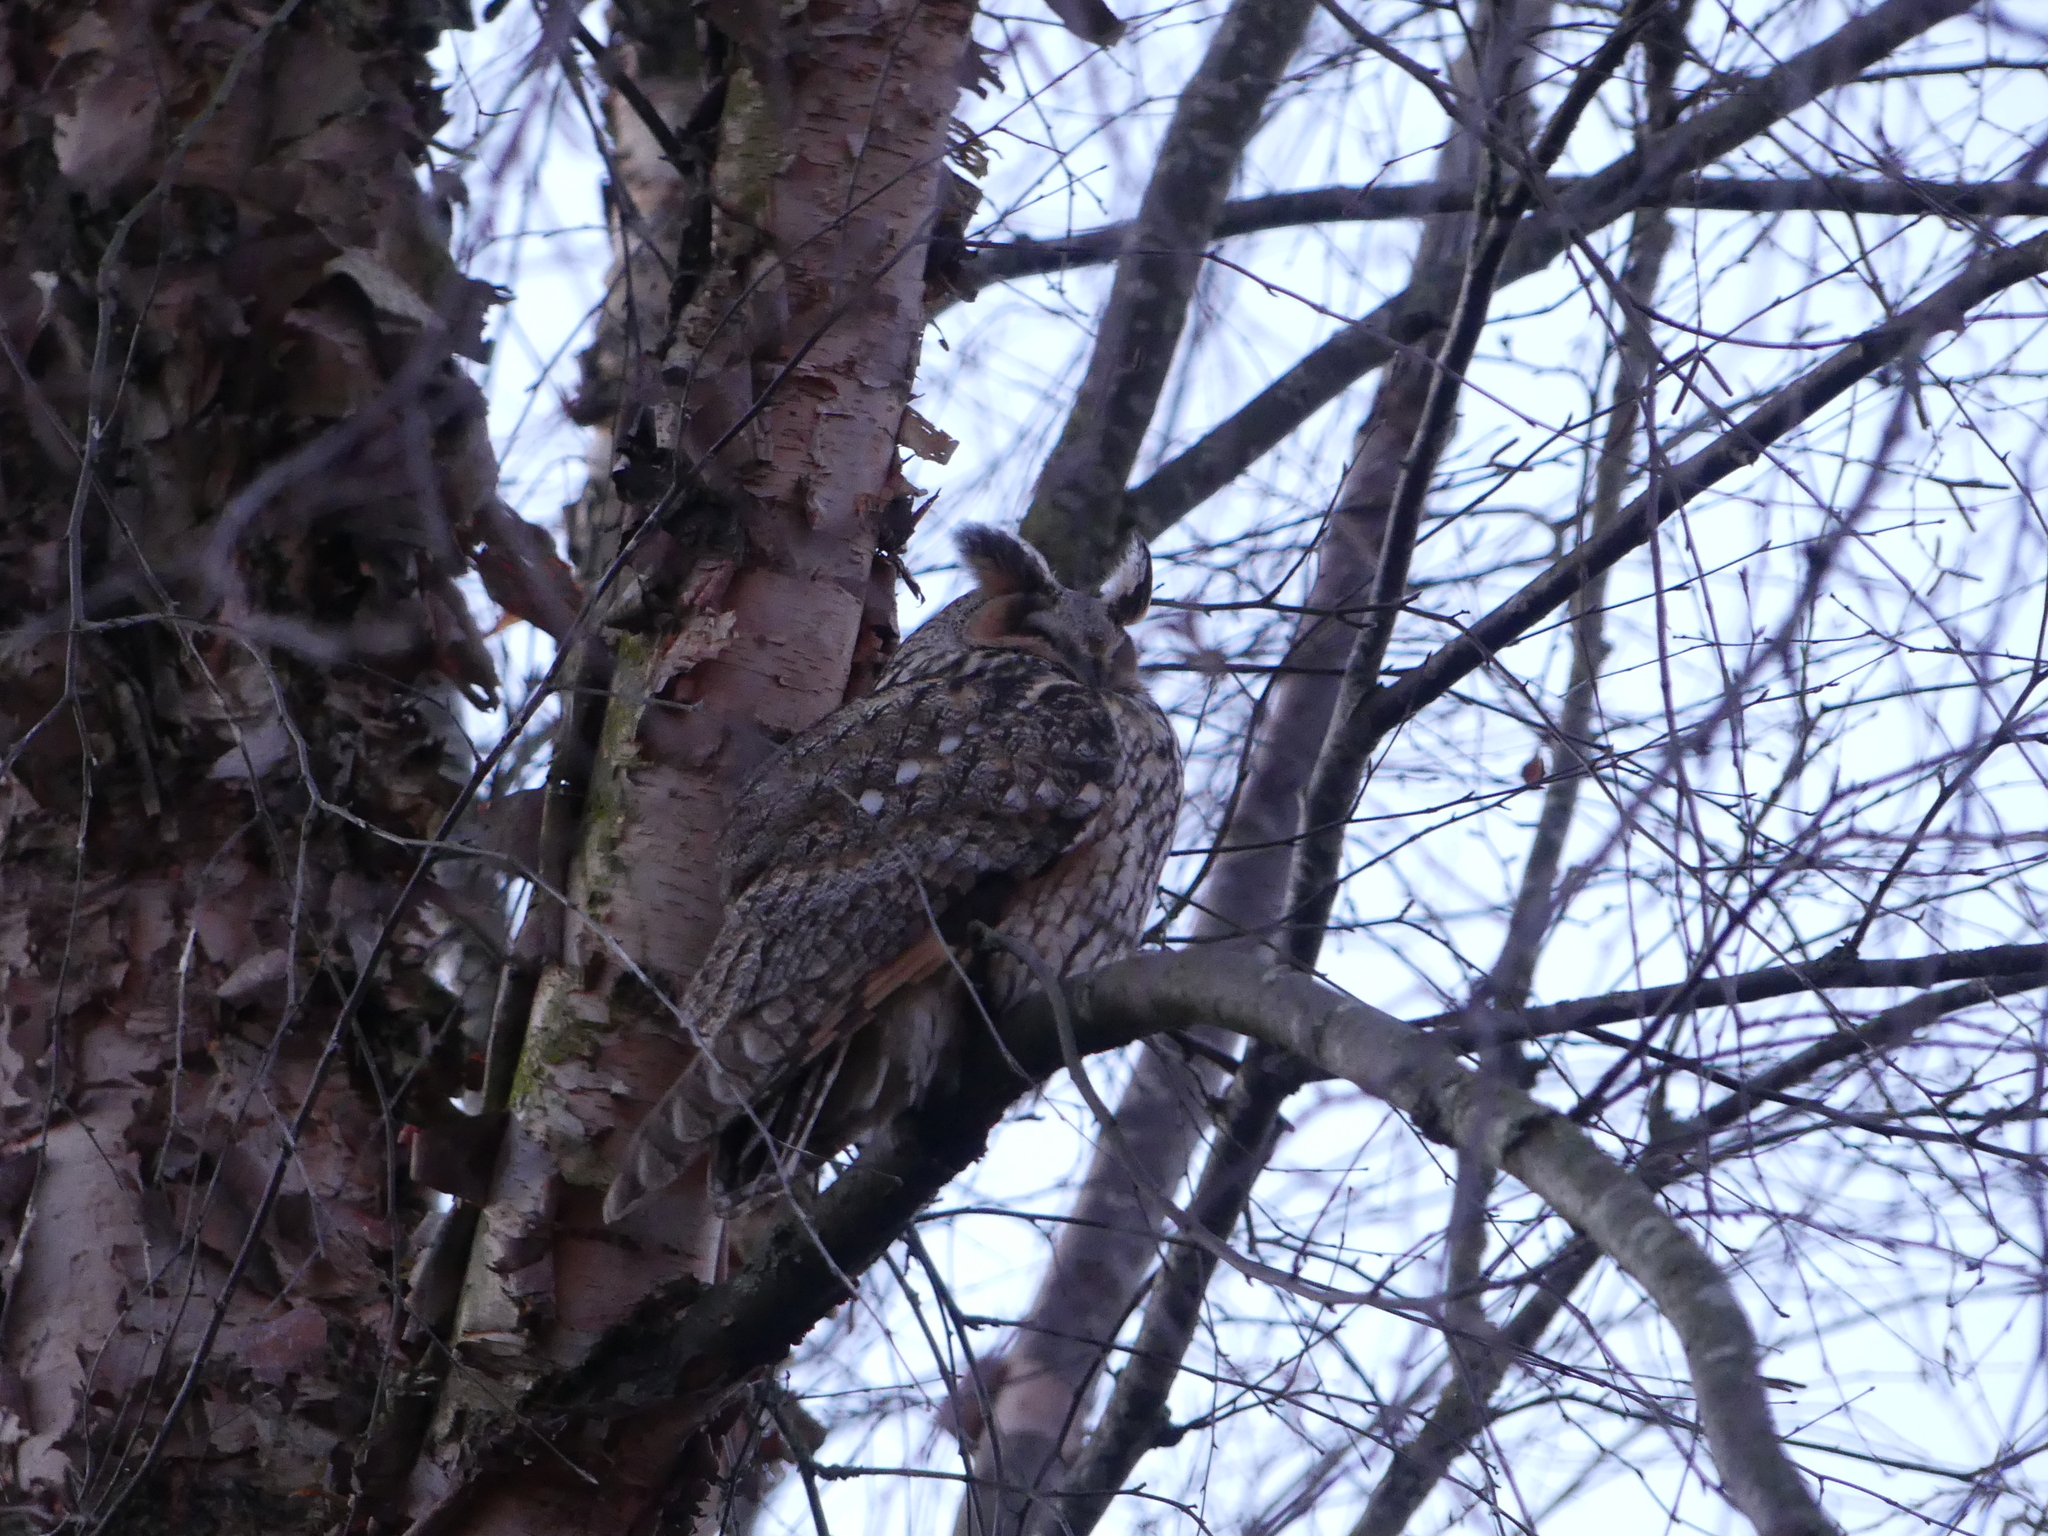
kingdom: Animalia
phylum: Chordata
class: Aves
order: Strigiformes
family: Strigidae
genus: Asio
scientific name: Asio otus
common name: Long-eared owl
